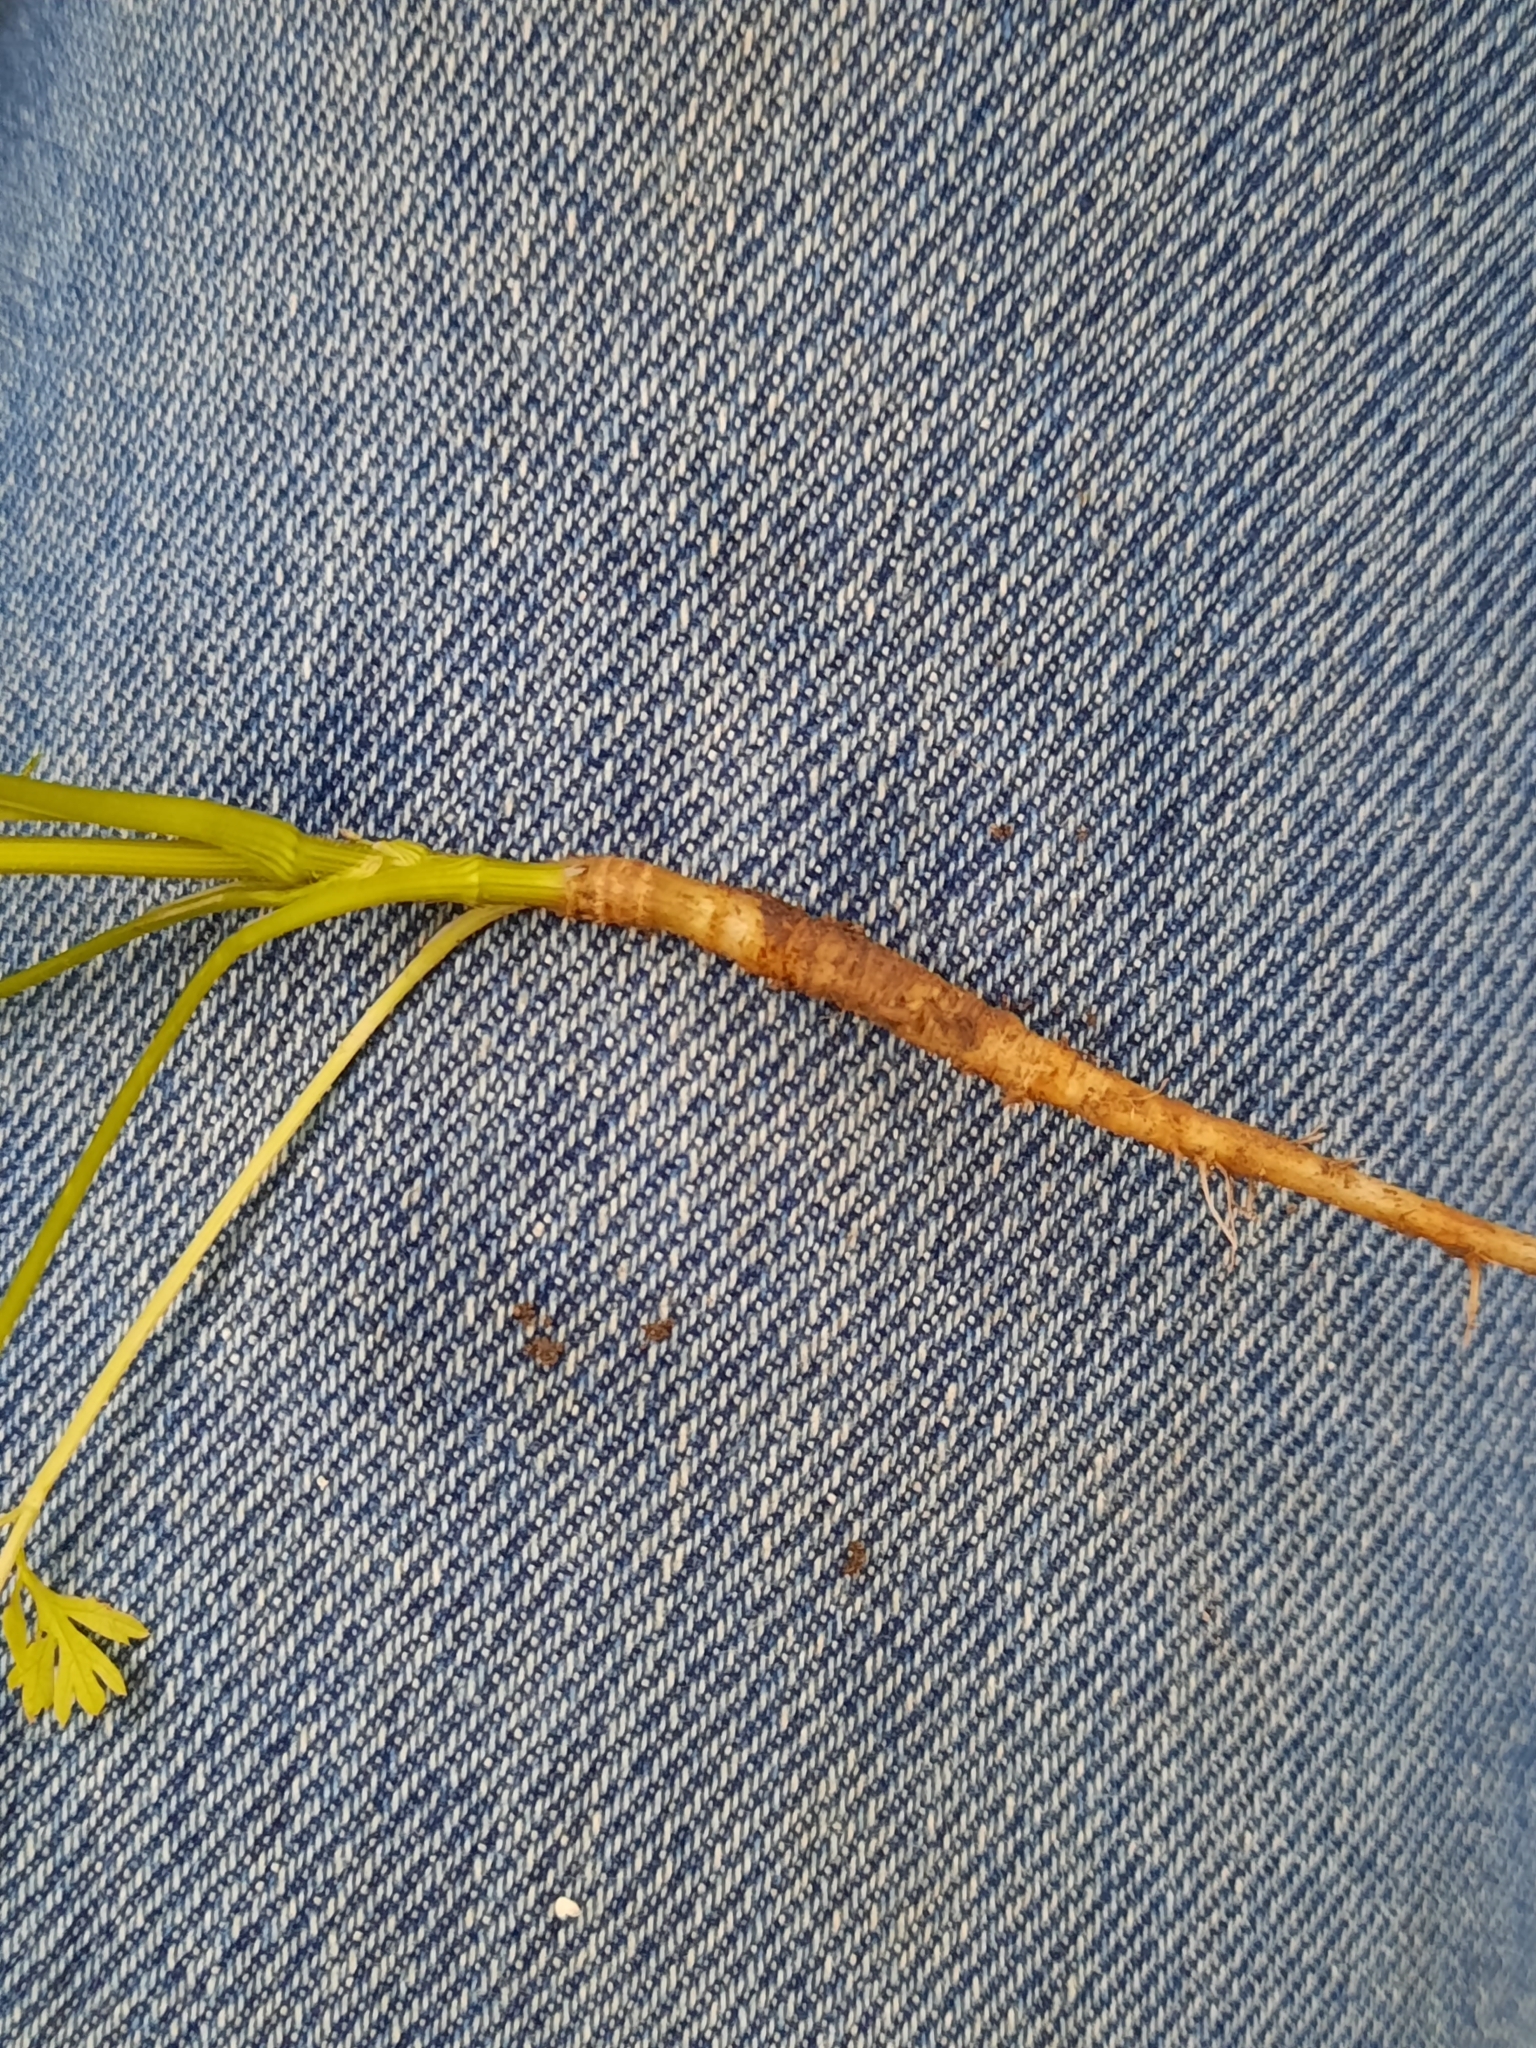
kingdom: Plantae
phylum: Tracheophyta
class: Magnoliopsida
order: Apiales
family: Apiaceae
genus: Daucus
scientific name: Daucus carota
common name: Wild carrot
